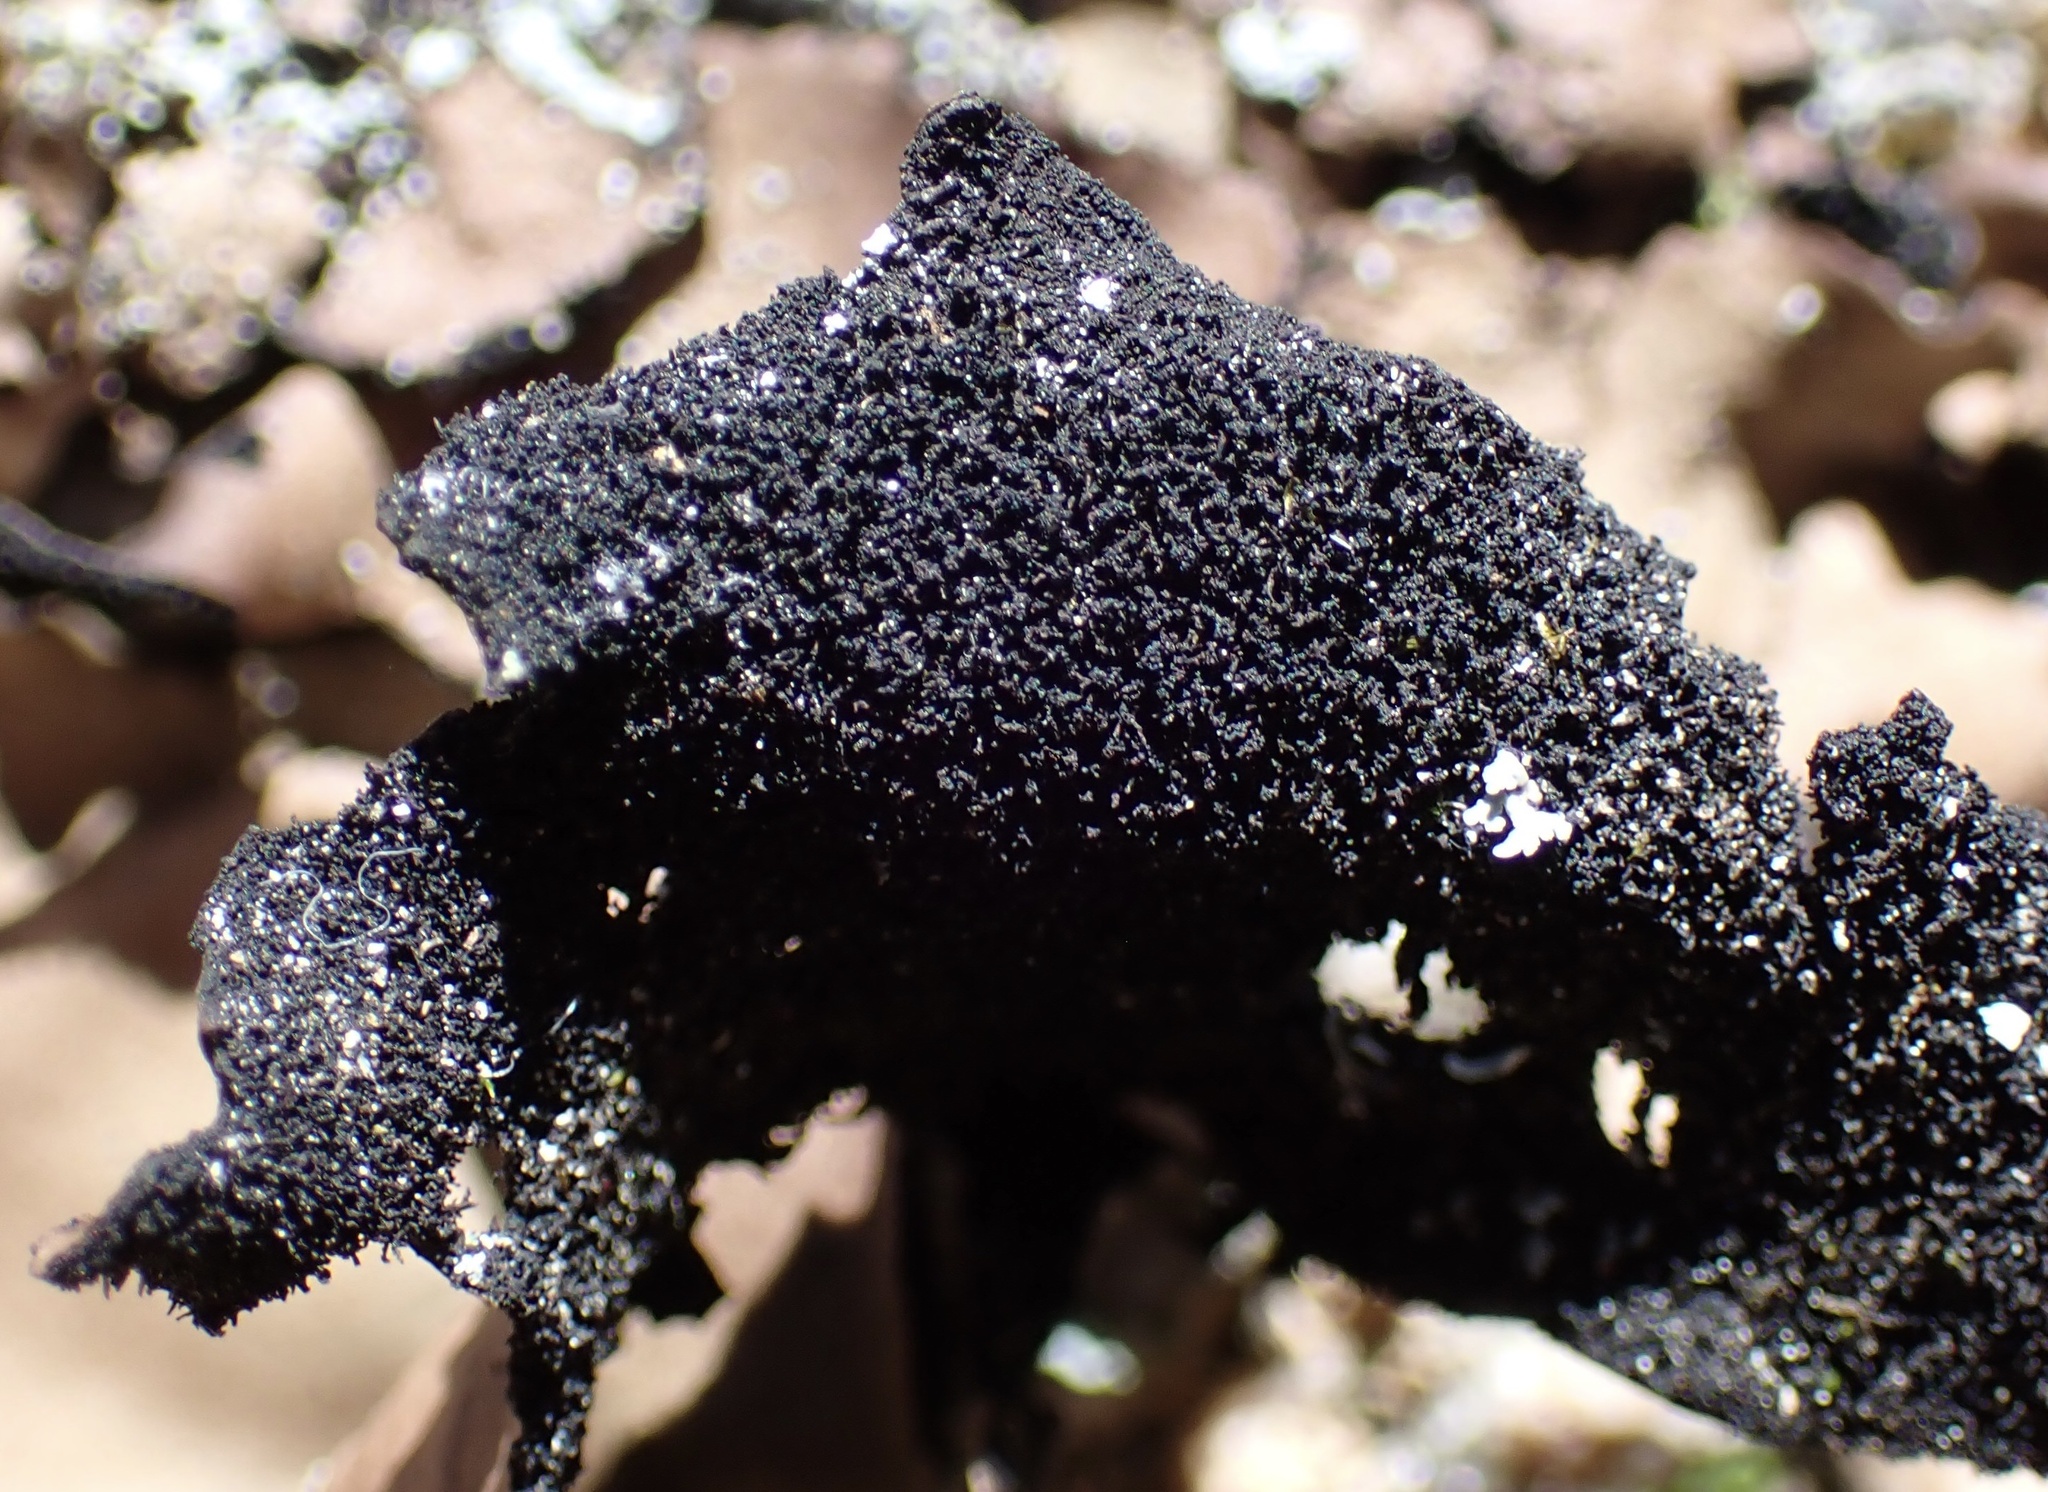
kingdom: Fungi
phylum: Ascomycota
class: Lecanoromycetes
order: Umbilicariales
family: Umbilicariaceae
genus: Umbilicaria
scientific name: Umbilicaria mammulata
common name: Smooth rock tripe
